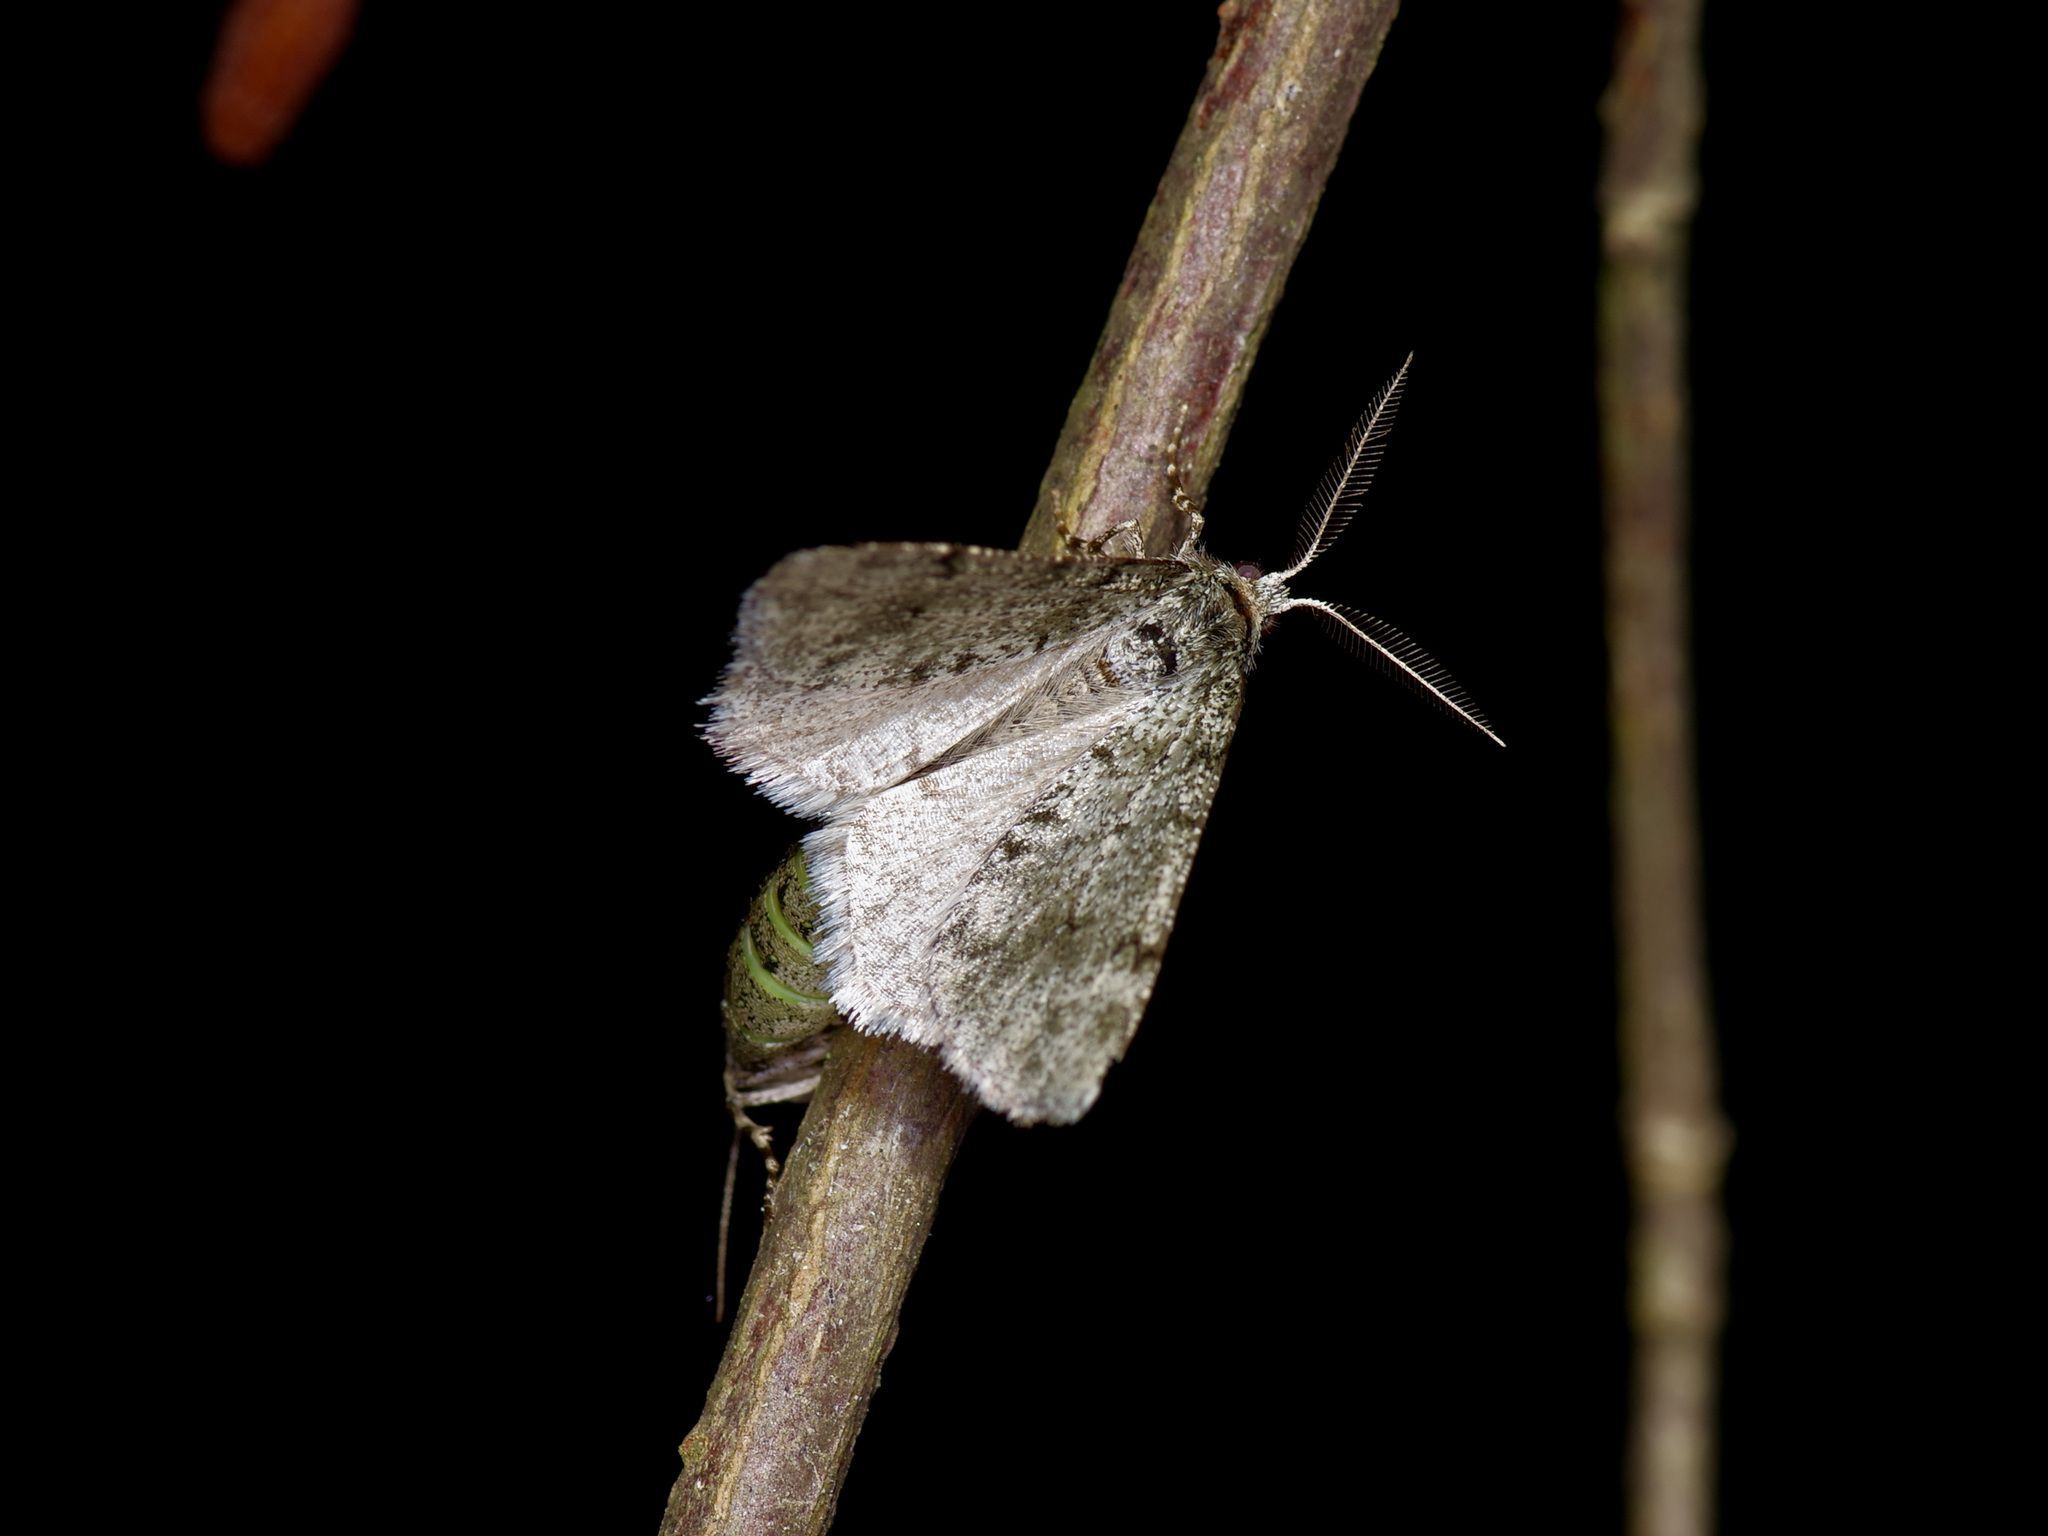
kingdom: Animalia
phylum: Arthropoda
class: Insecta
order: Lepidoptera
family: Geometridae
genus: Phigalia
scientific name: Phigalia strigataria
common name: Small phigalia
